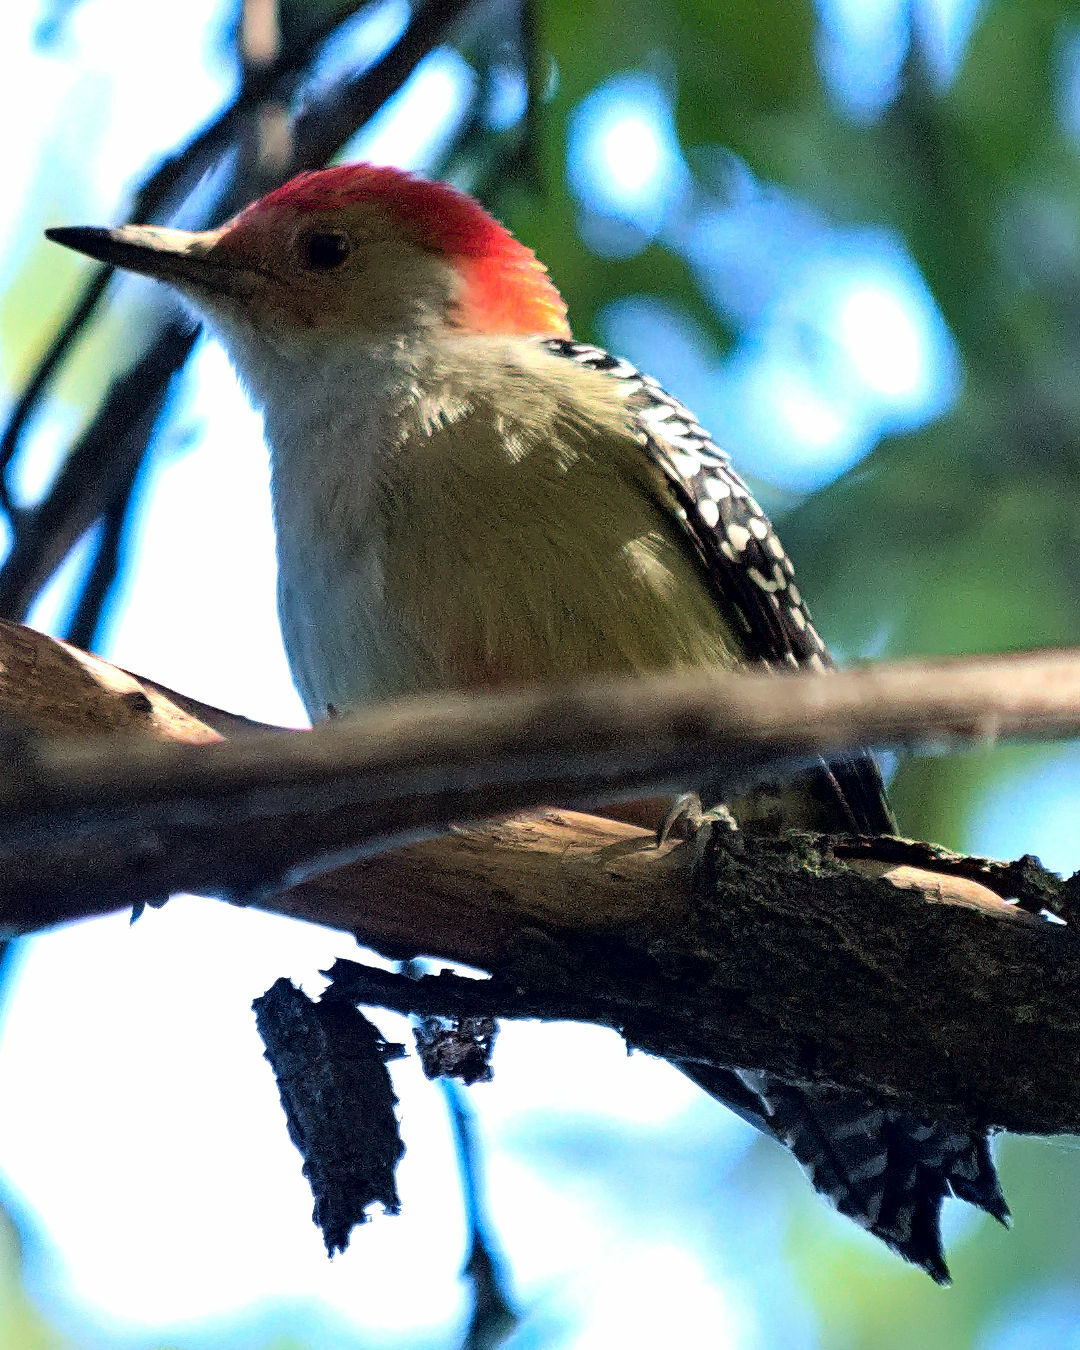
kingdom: Animalia
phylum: Chordata
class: Aves
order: Piciformes
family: Picidae
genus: Melanerpes
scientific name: Melanerpes carolinus
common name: Red-bellied woodpecker
